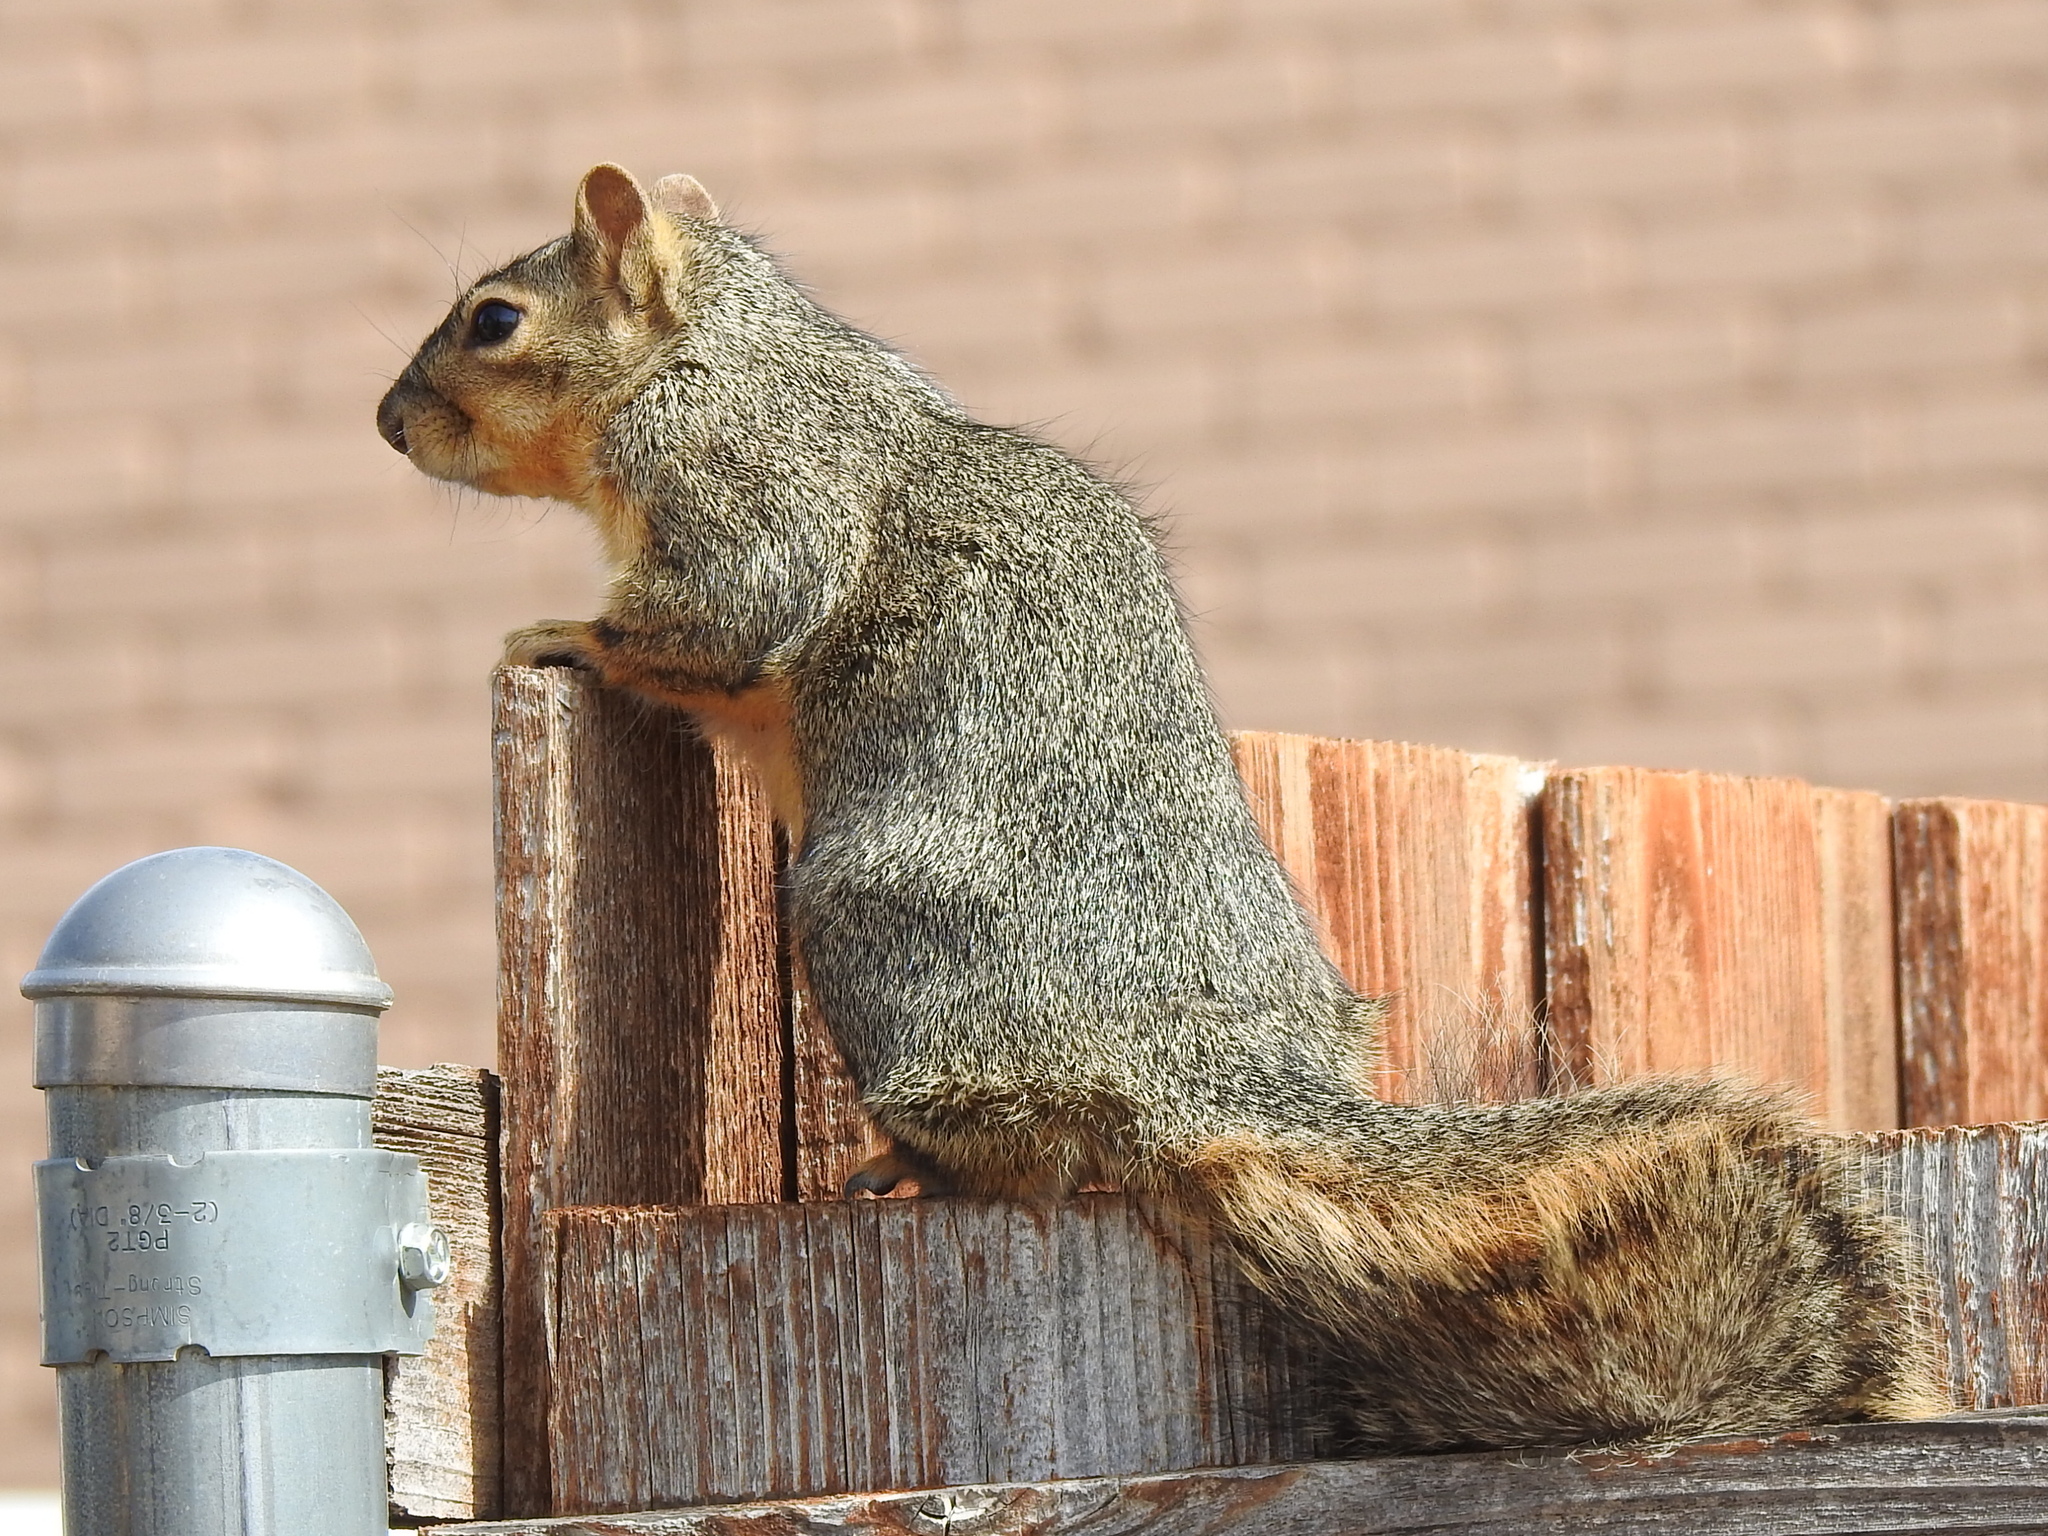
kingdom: Animalia
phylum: Chordata
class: Mammalia
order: Rodentia
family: Sciuridae
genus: Sciurus
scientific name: Sciurus niger
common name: Fox squirrel
